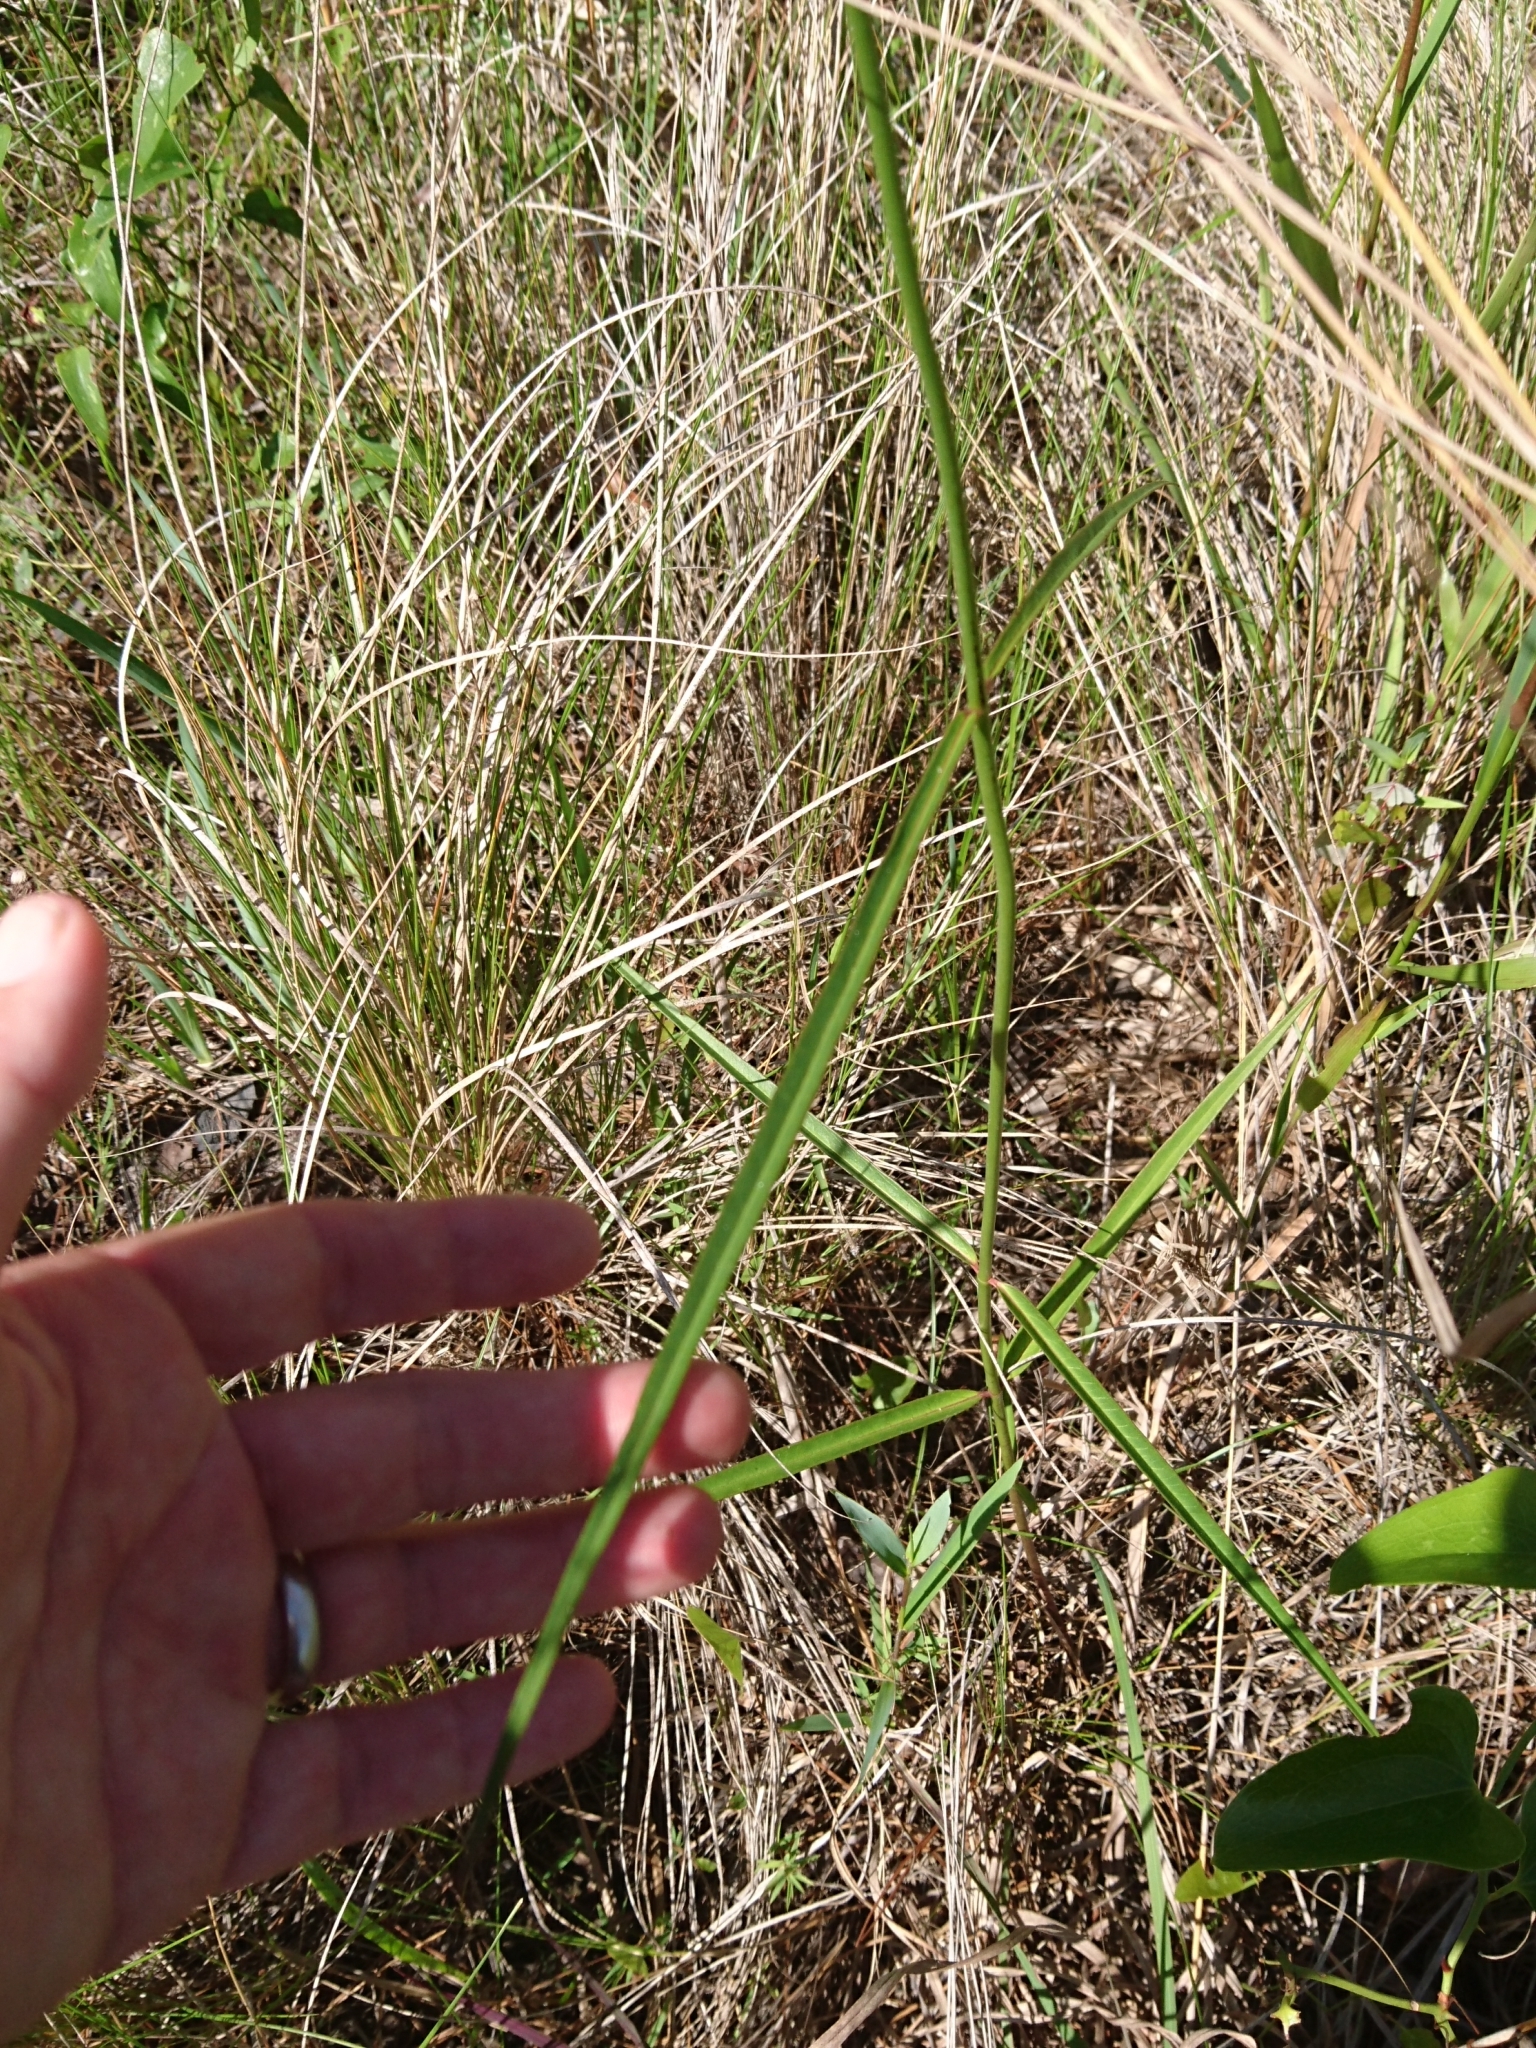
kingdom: Plantae
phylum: Tracheophyta
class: Magnoliopsida
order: Gentianales
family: Apocynaceae
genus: Asclepias
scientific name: Asclepias lanceolata
